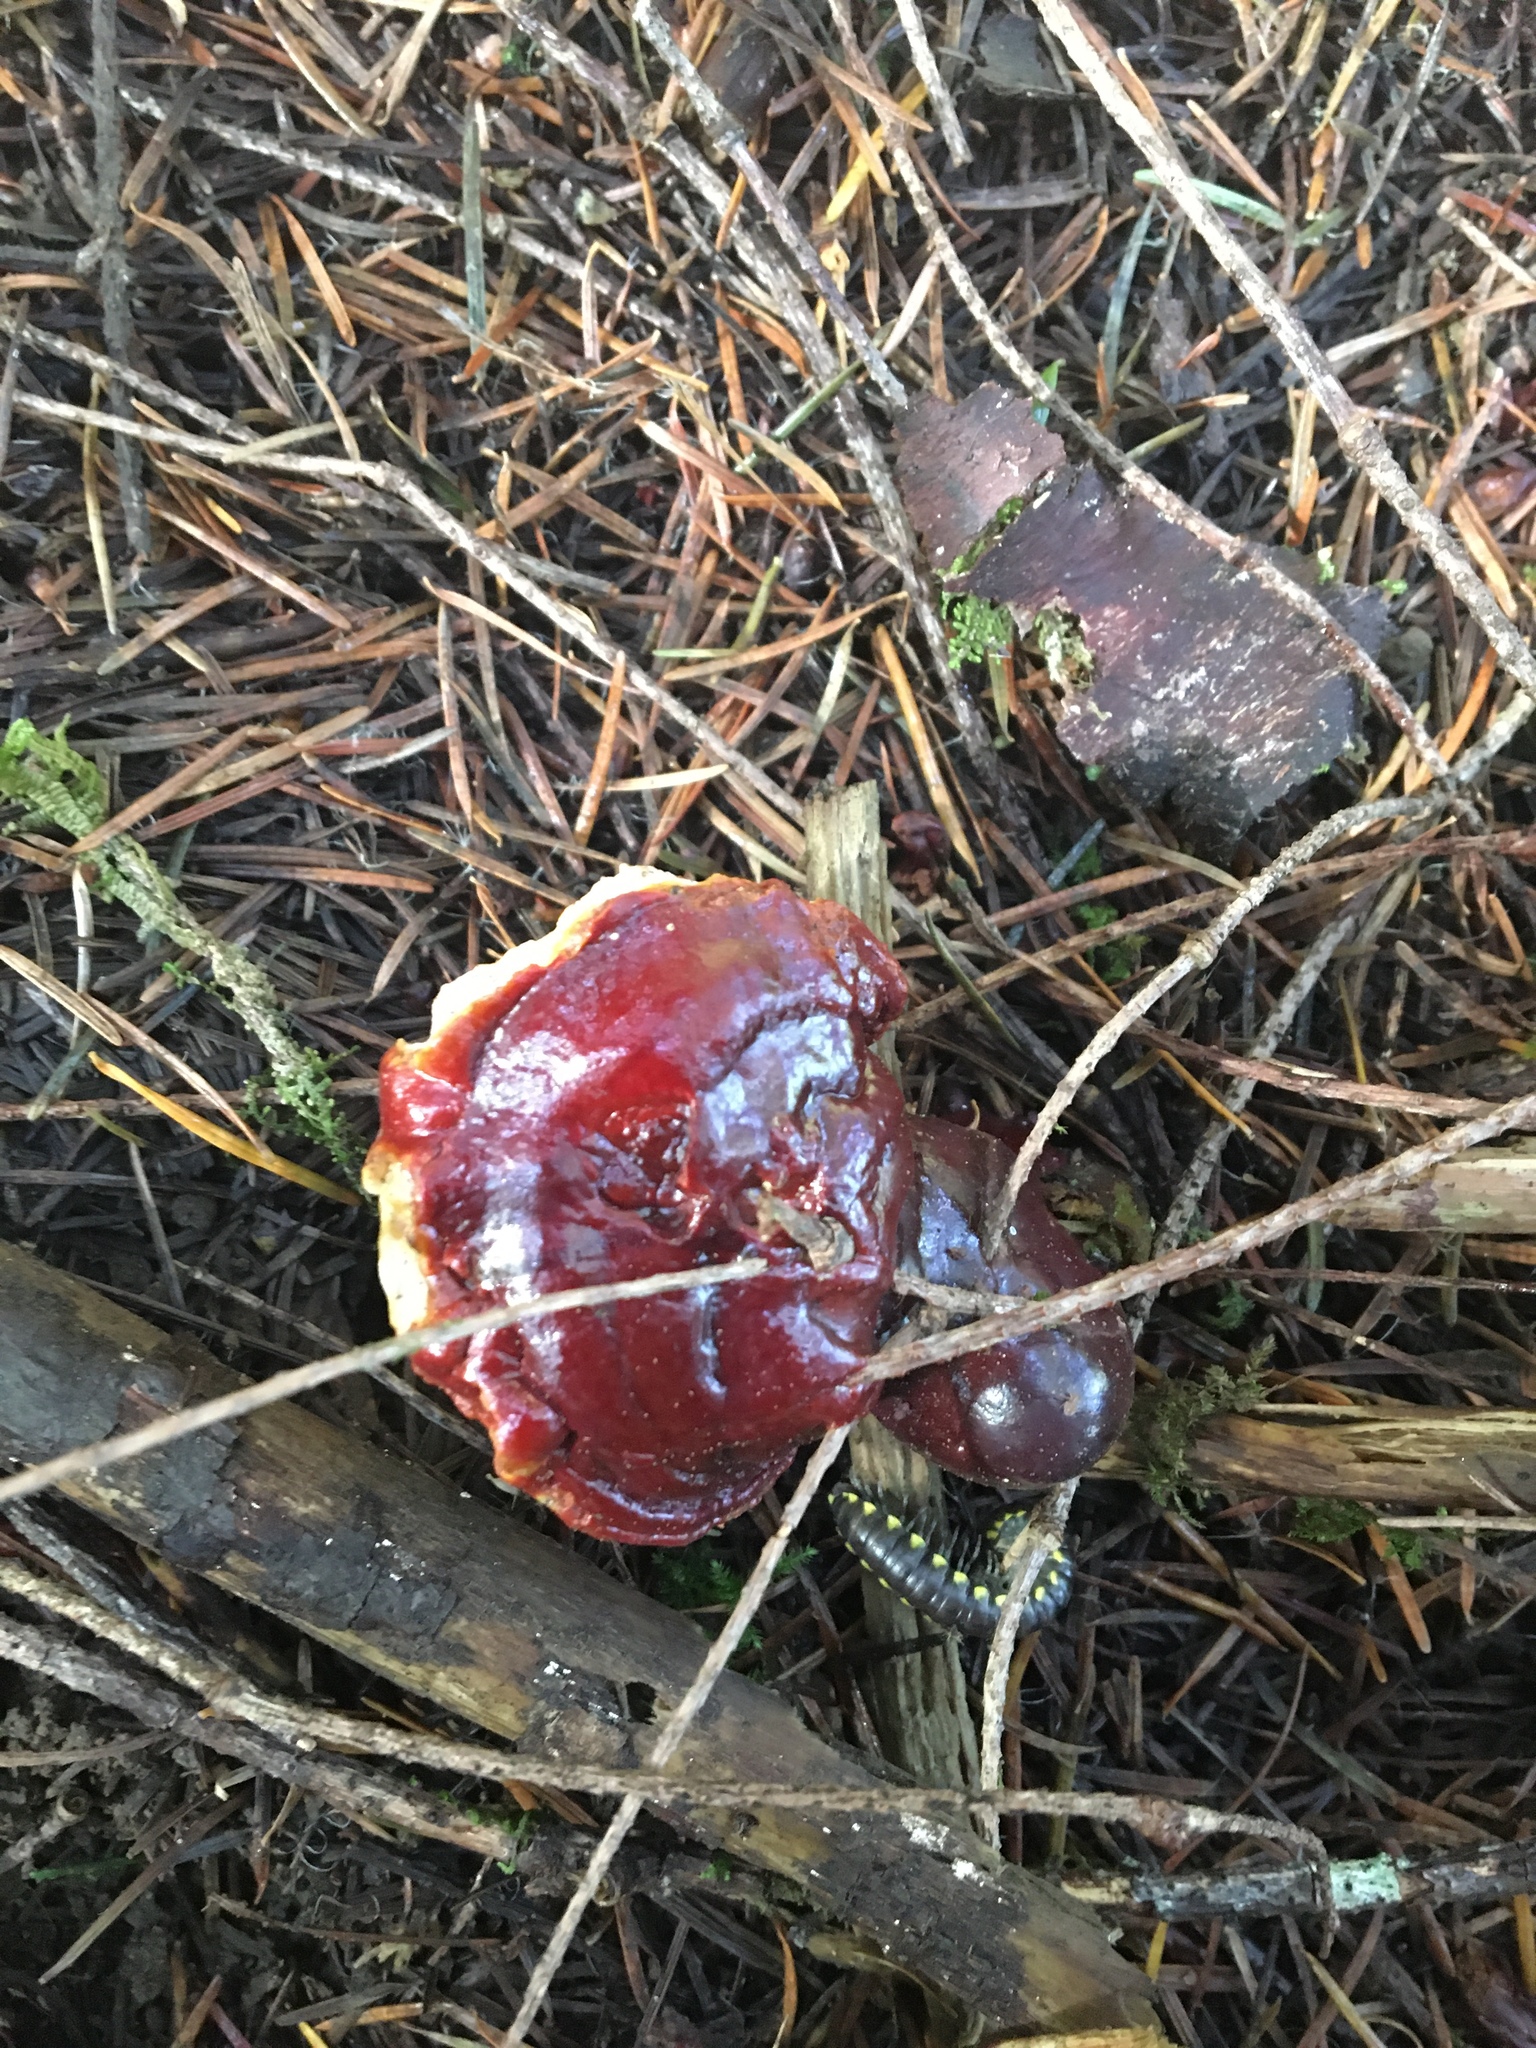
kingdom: Fungi
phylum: Basidiomycota
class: Agaricomycetes
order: Polyporales
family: Polyporaceae
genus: Ganoderma
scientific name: Ganoderma oregonense
